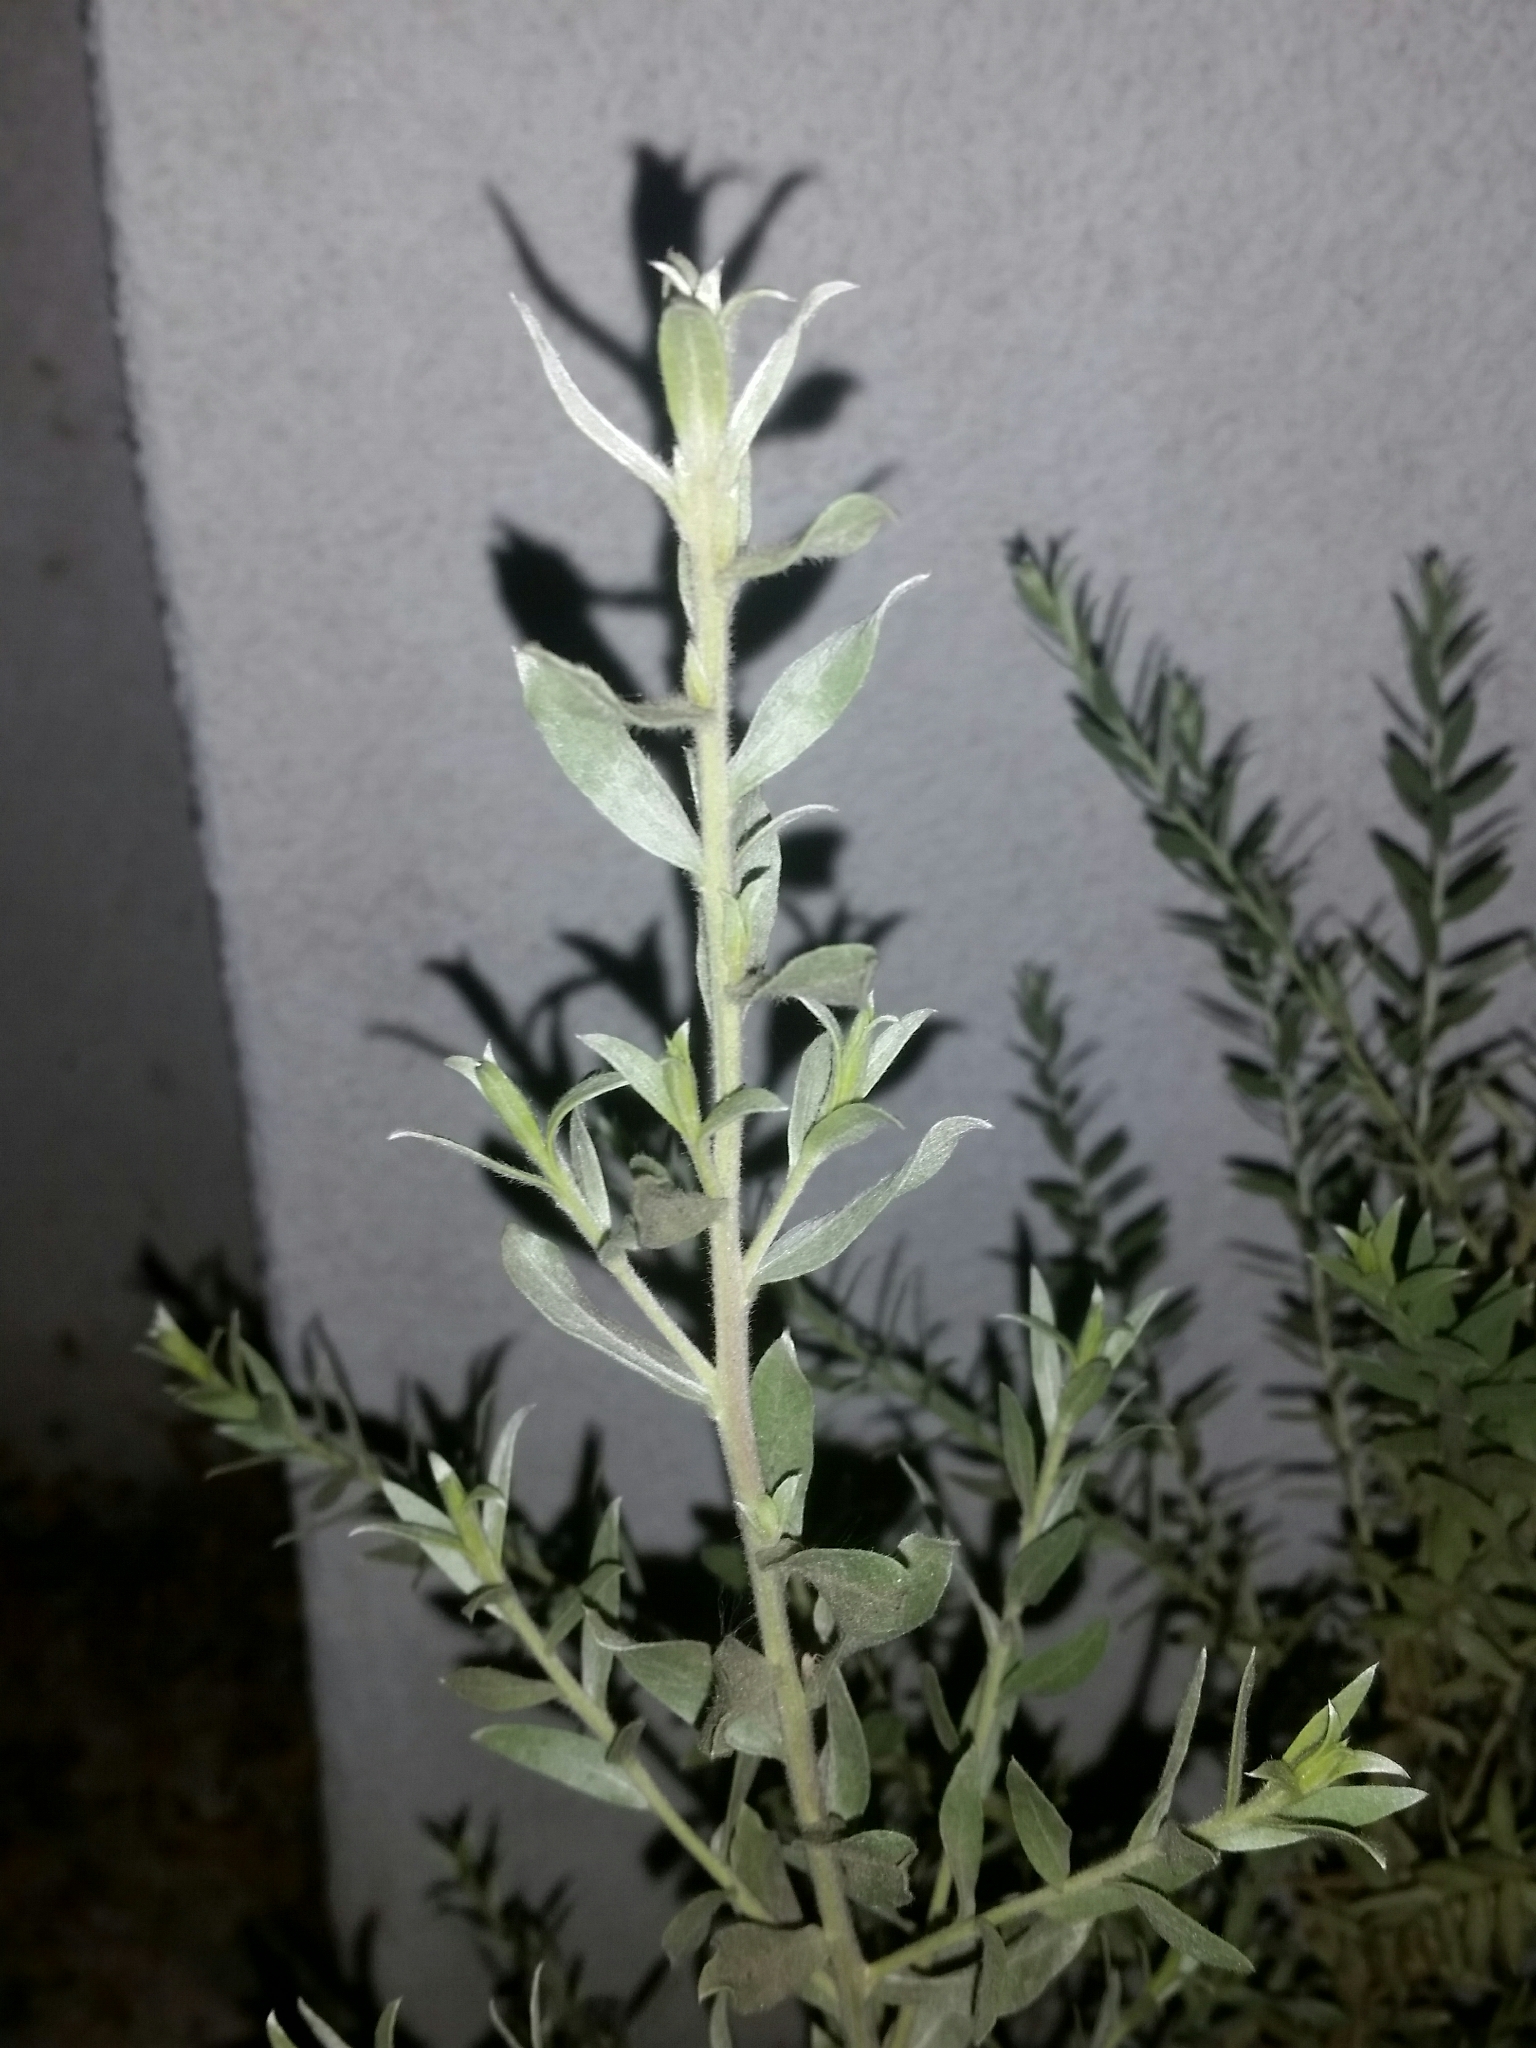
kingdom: Plantae
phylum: Tracheophyta
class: Magnoliopsida
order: Asterales
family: Asteraceae
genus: Pluchea
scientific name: Pluchea sericea
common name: Arrow-weed
